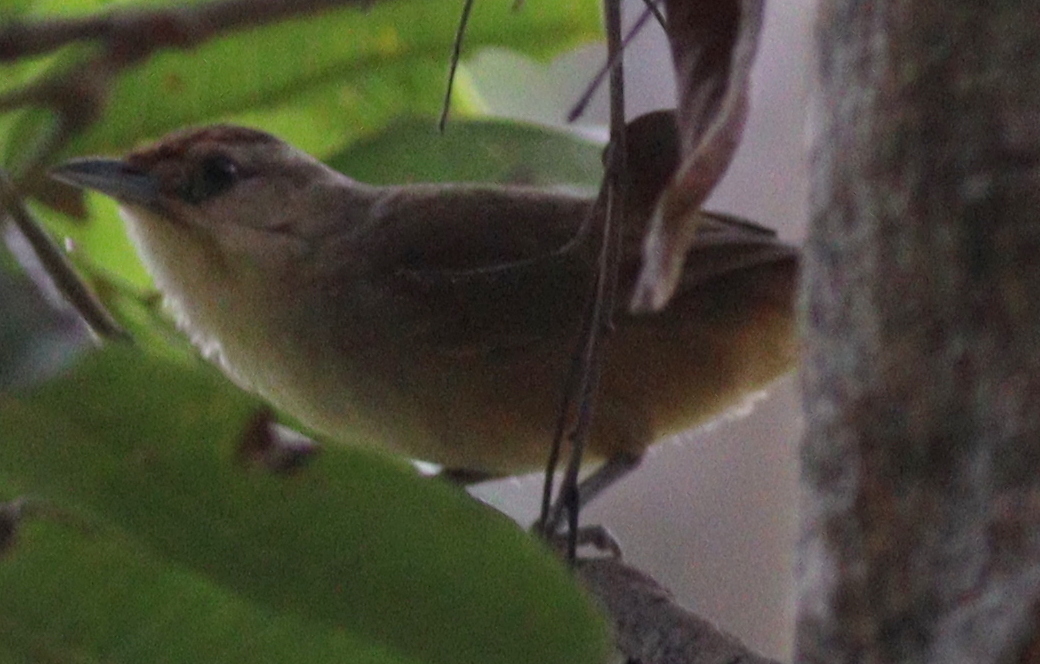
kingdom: Animalia
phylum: Chordata
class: Aves
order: Passeriformes
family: Furnariidae
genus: Phacellodomus
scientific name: Phacellodomus rufifrons
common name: Rufous-fronted thornbird
